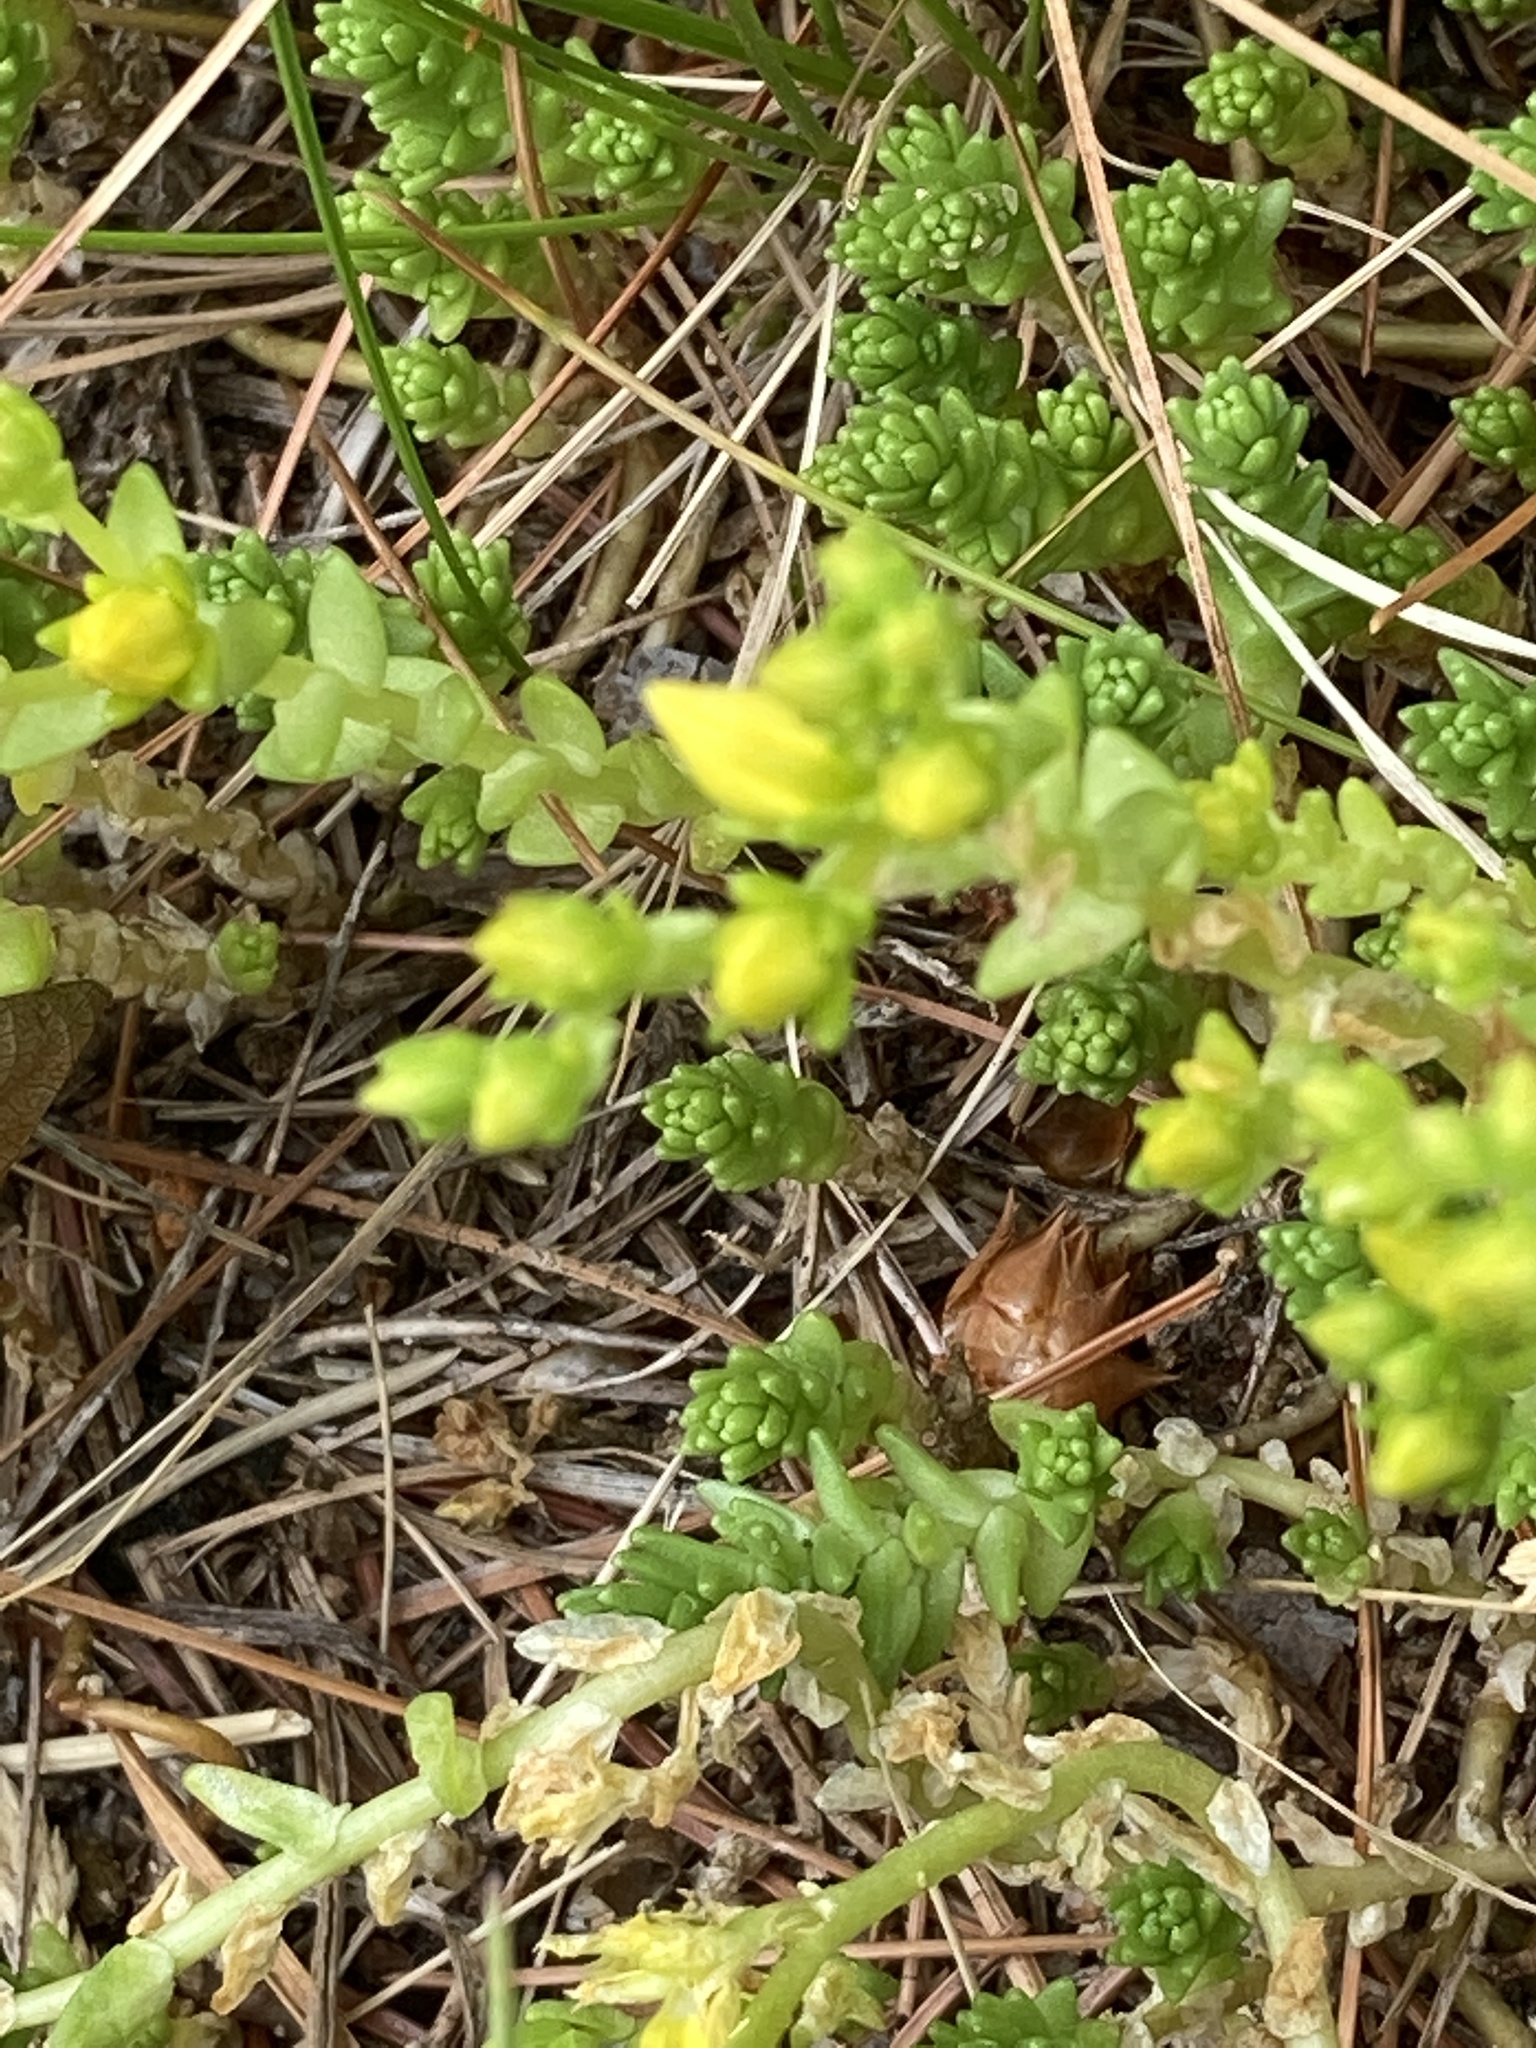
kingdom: Plantae
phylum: Tracheophyta
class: Magnoliopsida
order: Saxifragales
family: Crassulaceae
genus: Sedum
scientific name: Sedum acre
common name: Biting stonecrop
